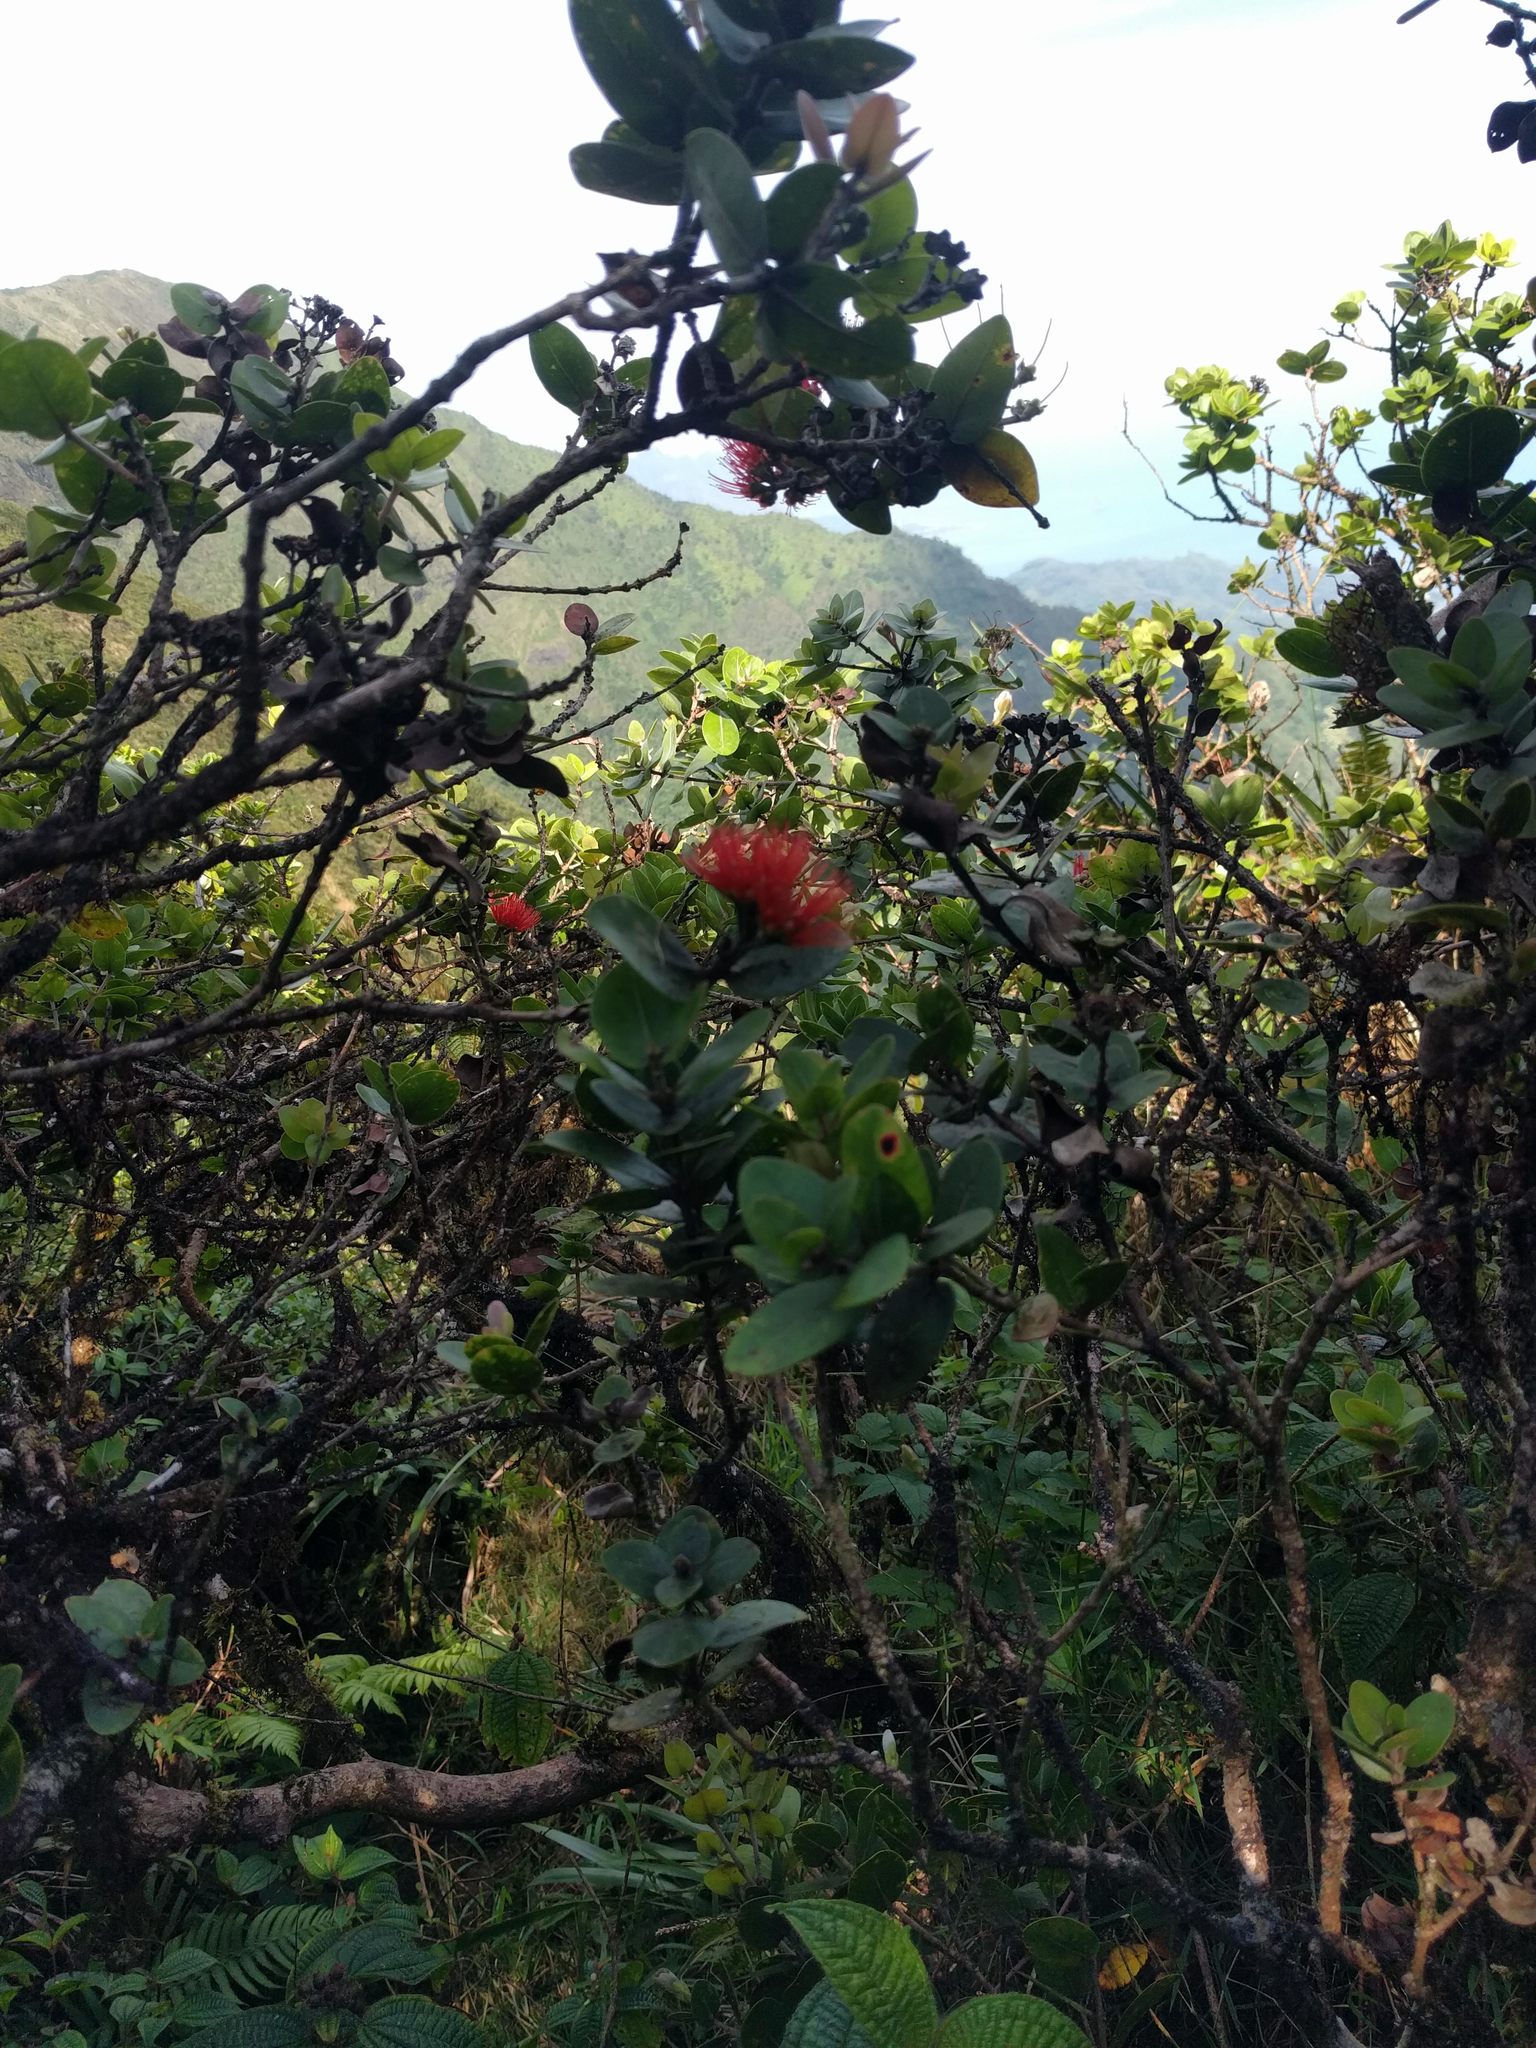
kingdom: Plantae
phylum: Tracheophyta
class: Magnoliopsida
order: Myrtales
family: Myrtaceae
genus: Metrosideros
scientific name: Metrosideros polymorpha
